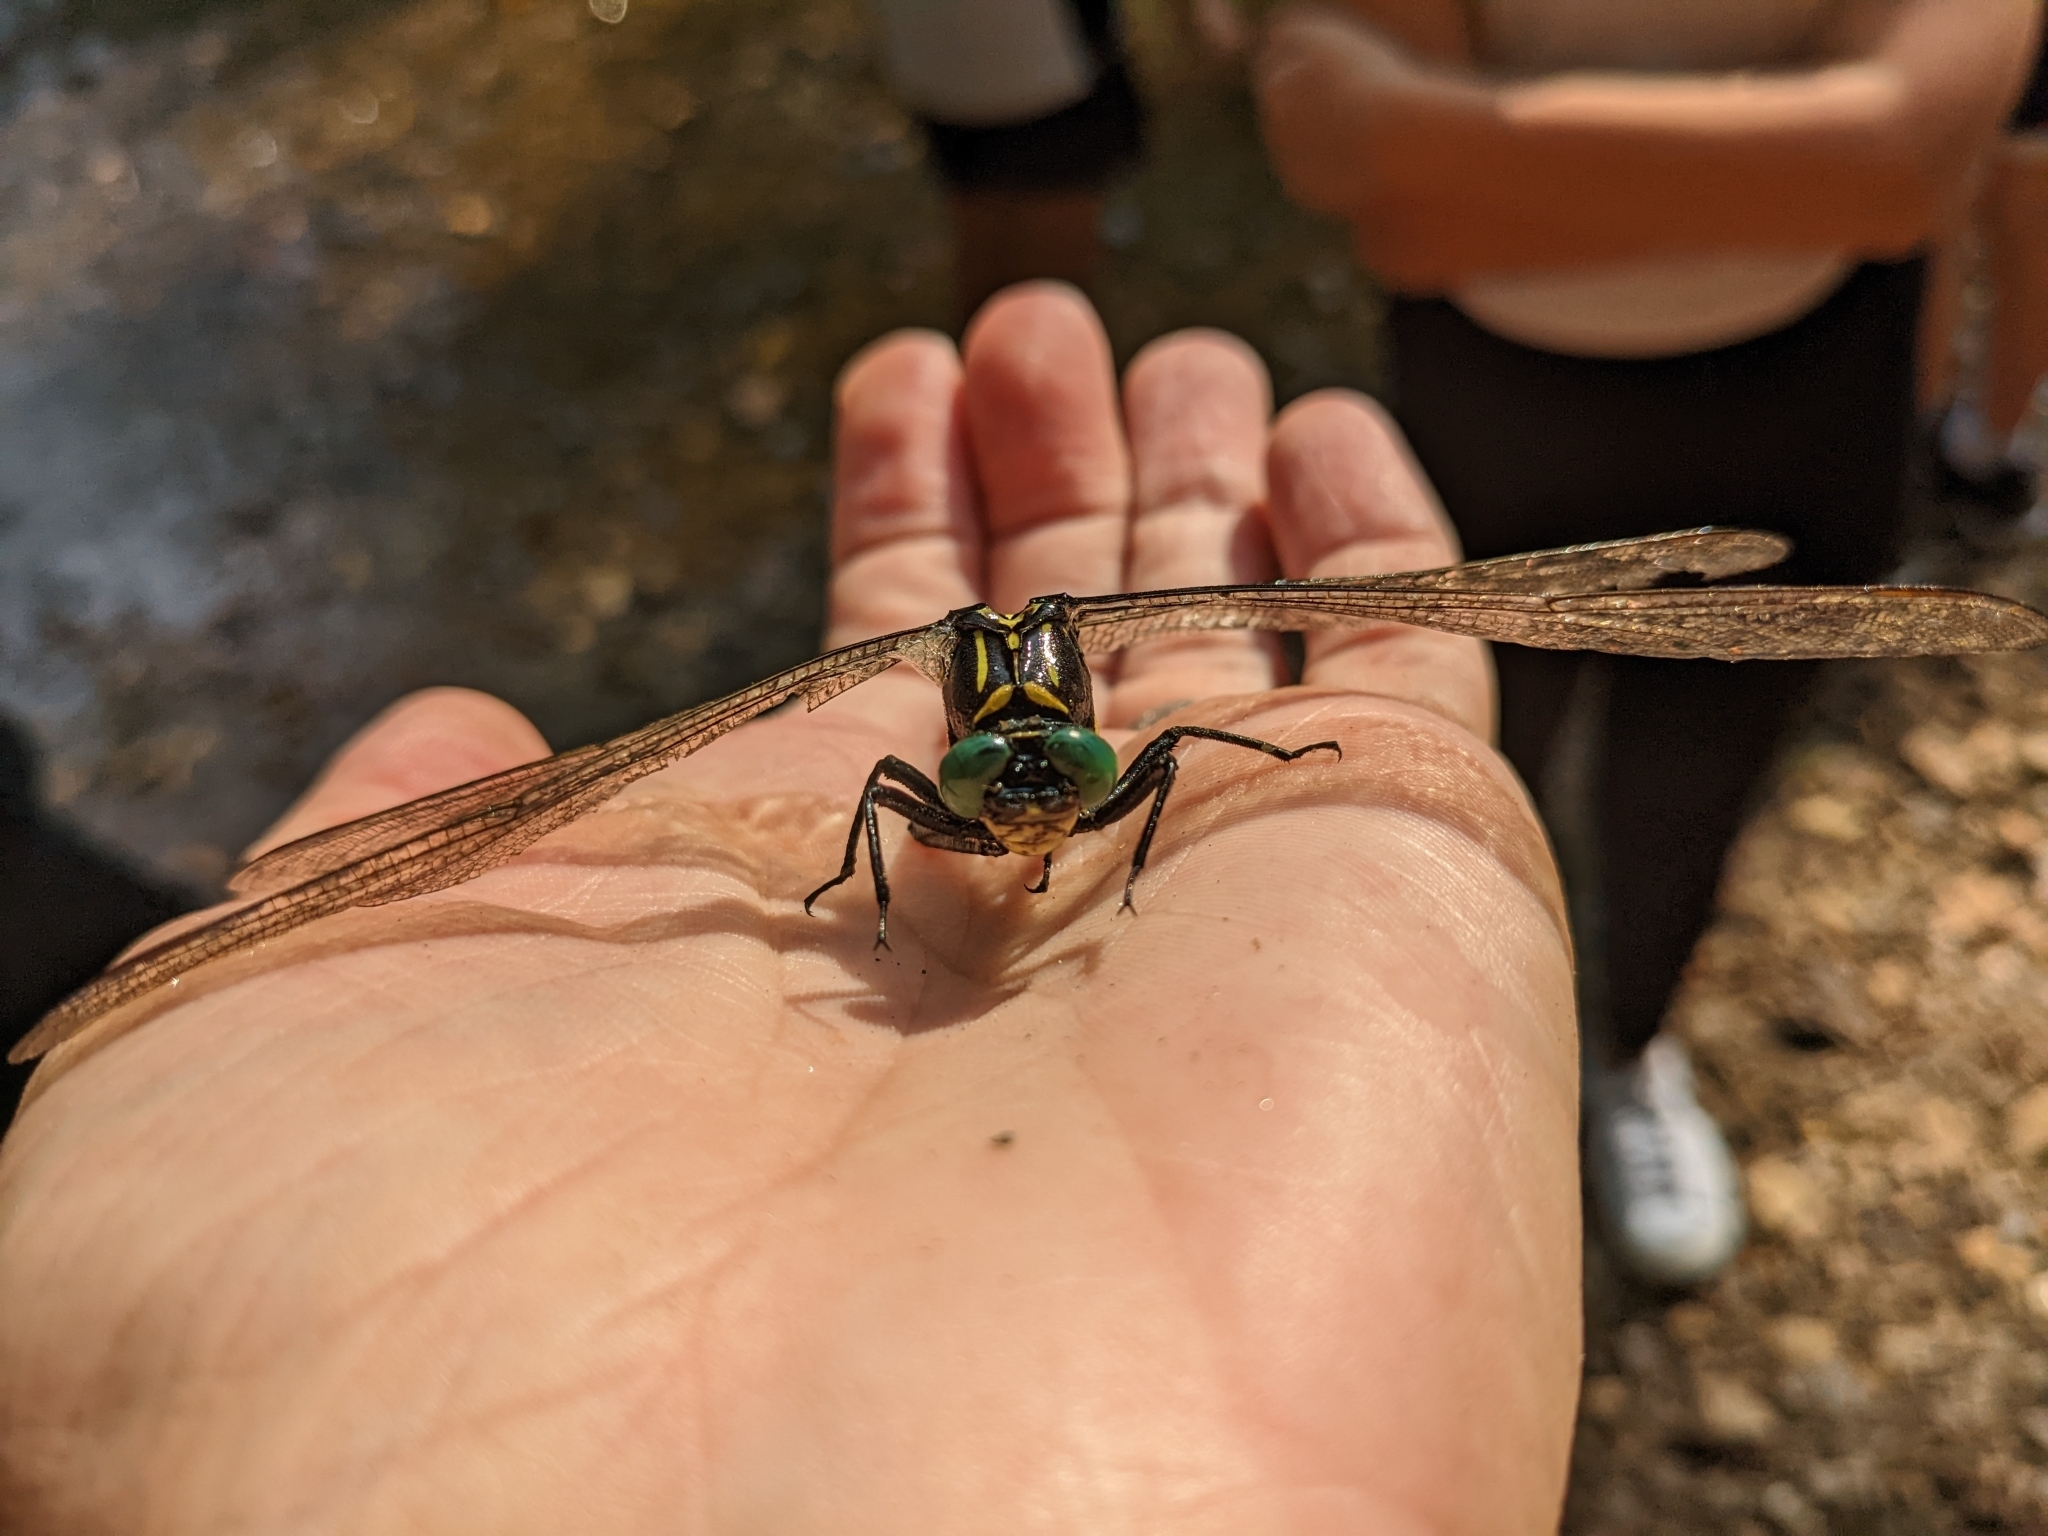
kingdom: Animalia
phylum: Arthropoda
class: Insecta
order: Odonata
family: Gomphidae
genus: Hagenius
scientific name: Hagenius brevistylus
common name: Dragonhunter
